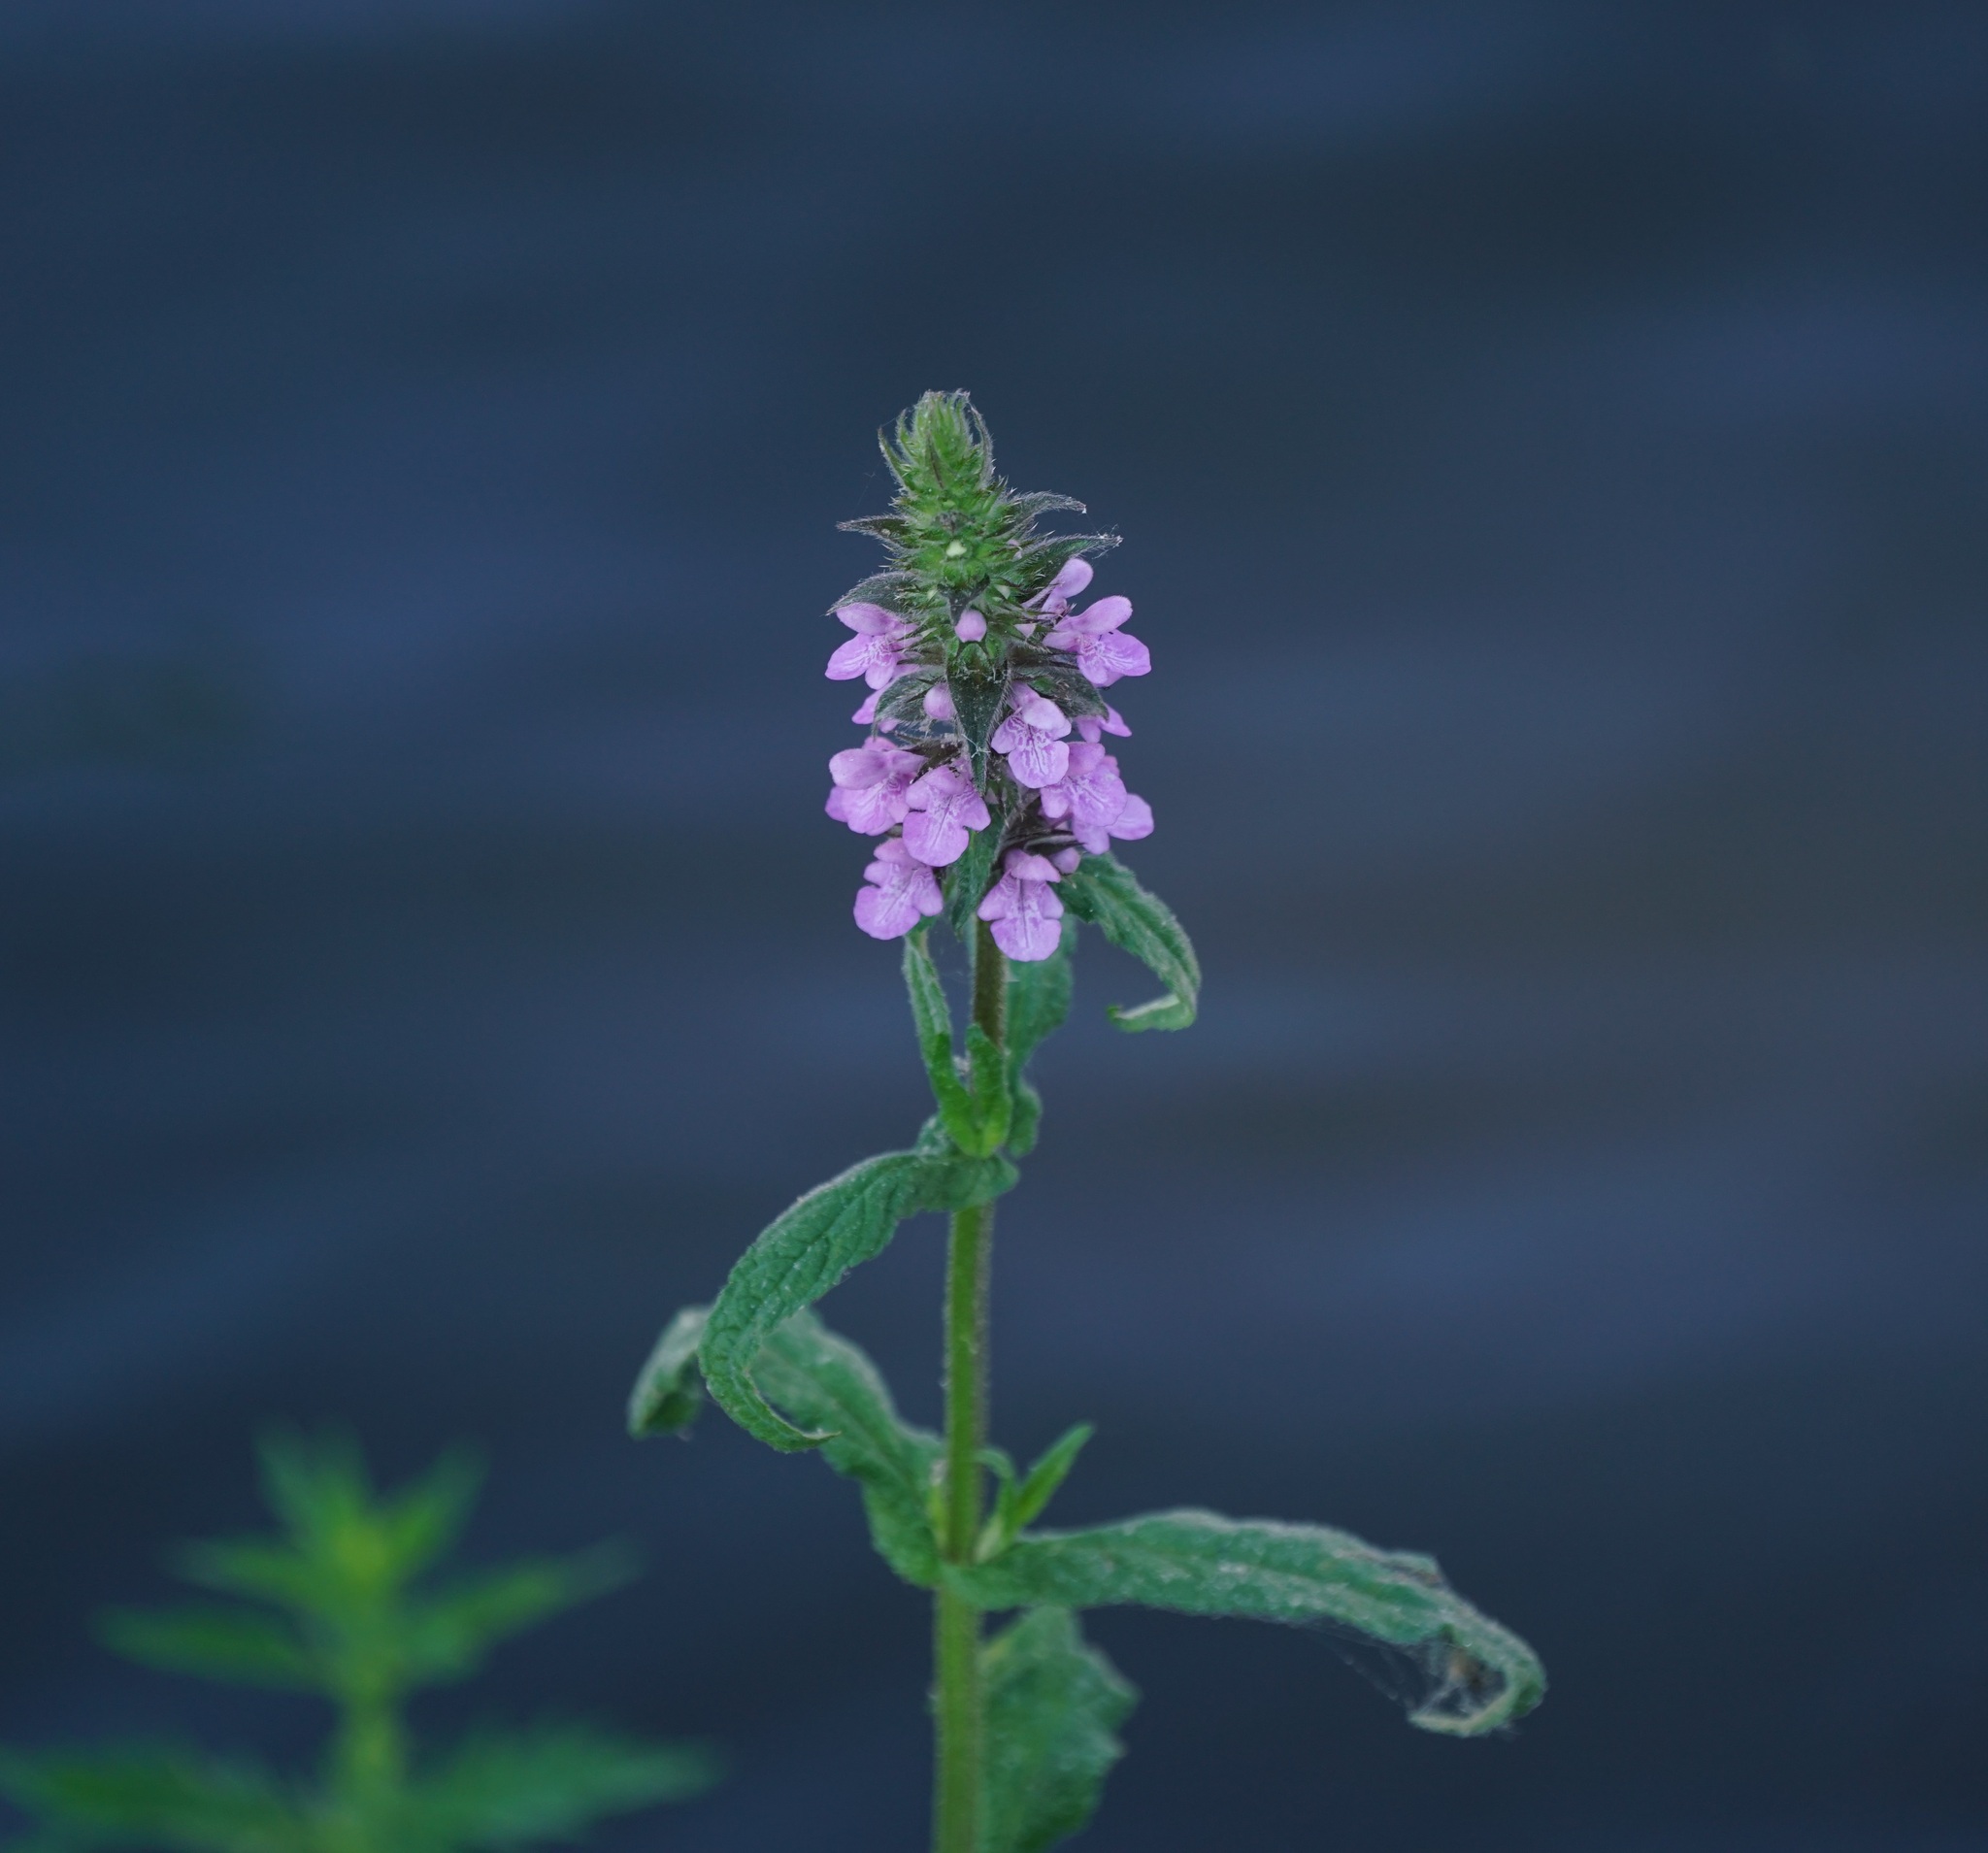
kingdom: Plantae
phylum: Tracheophyta
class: Magnoliopsida
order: Lamiales
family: Lamiaceae
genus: Stachys
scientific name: Stachys palustris
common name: Marsh woundwort
